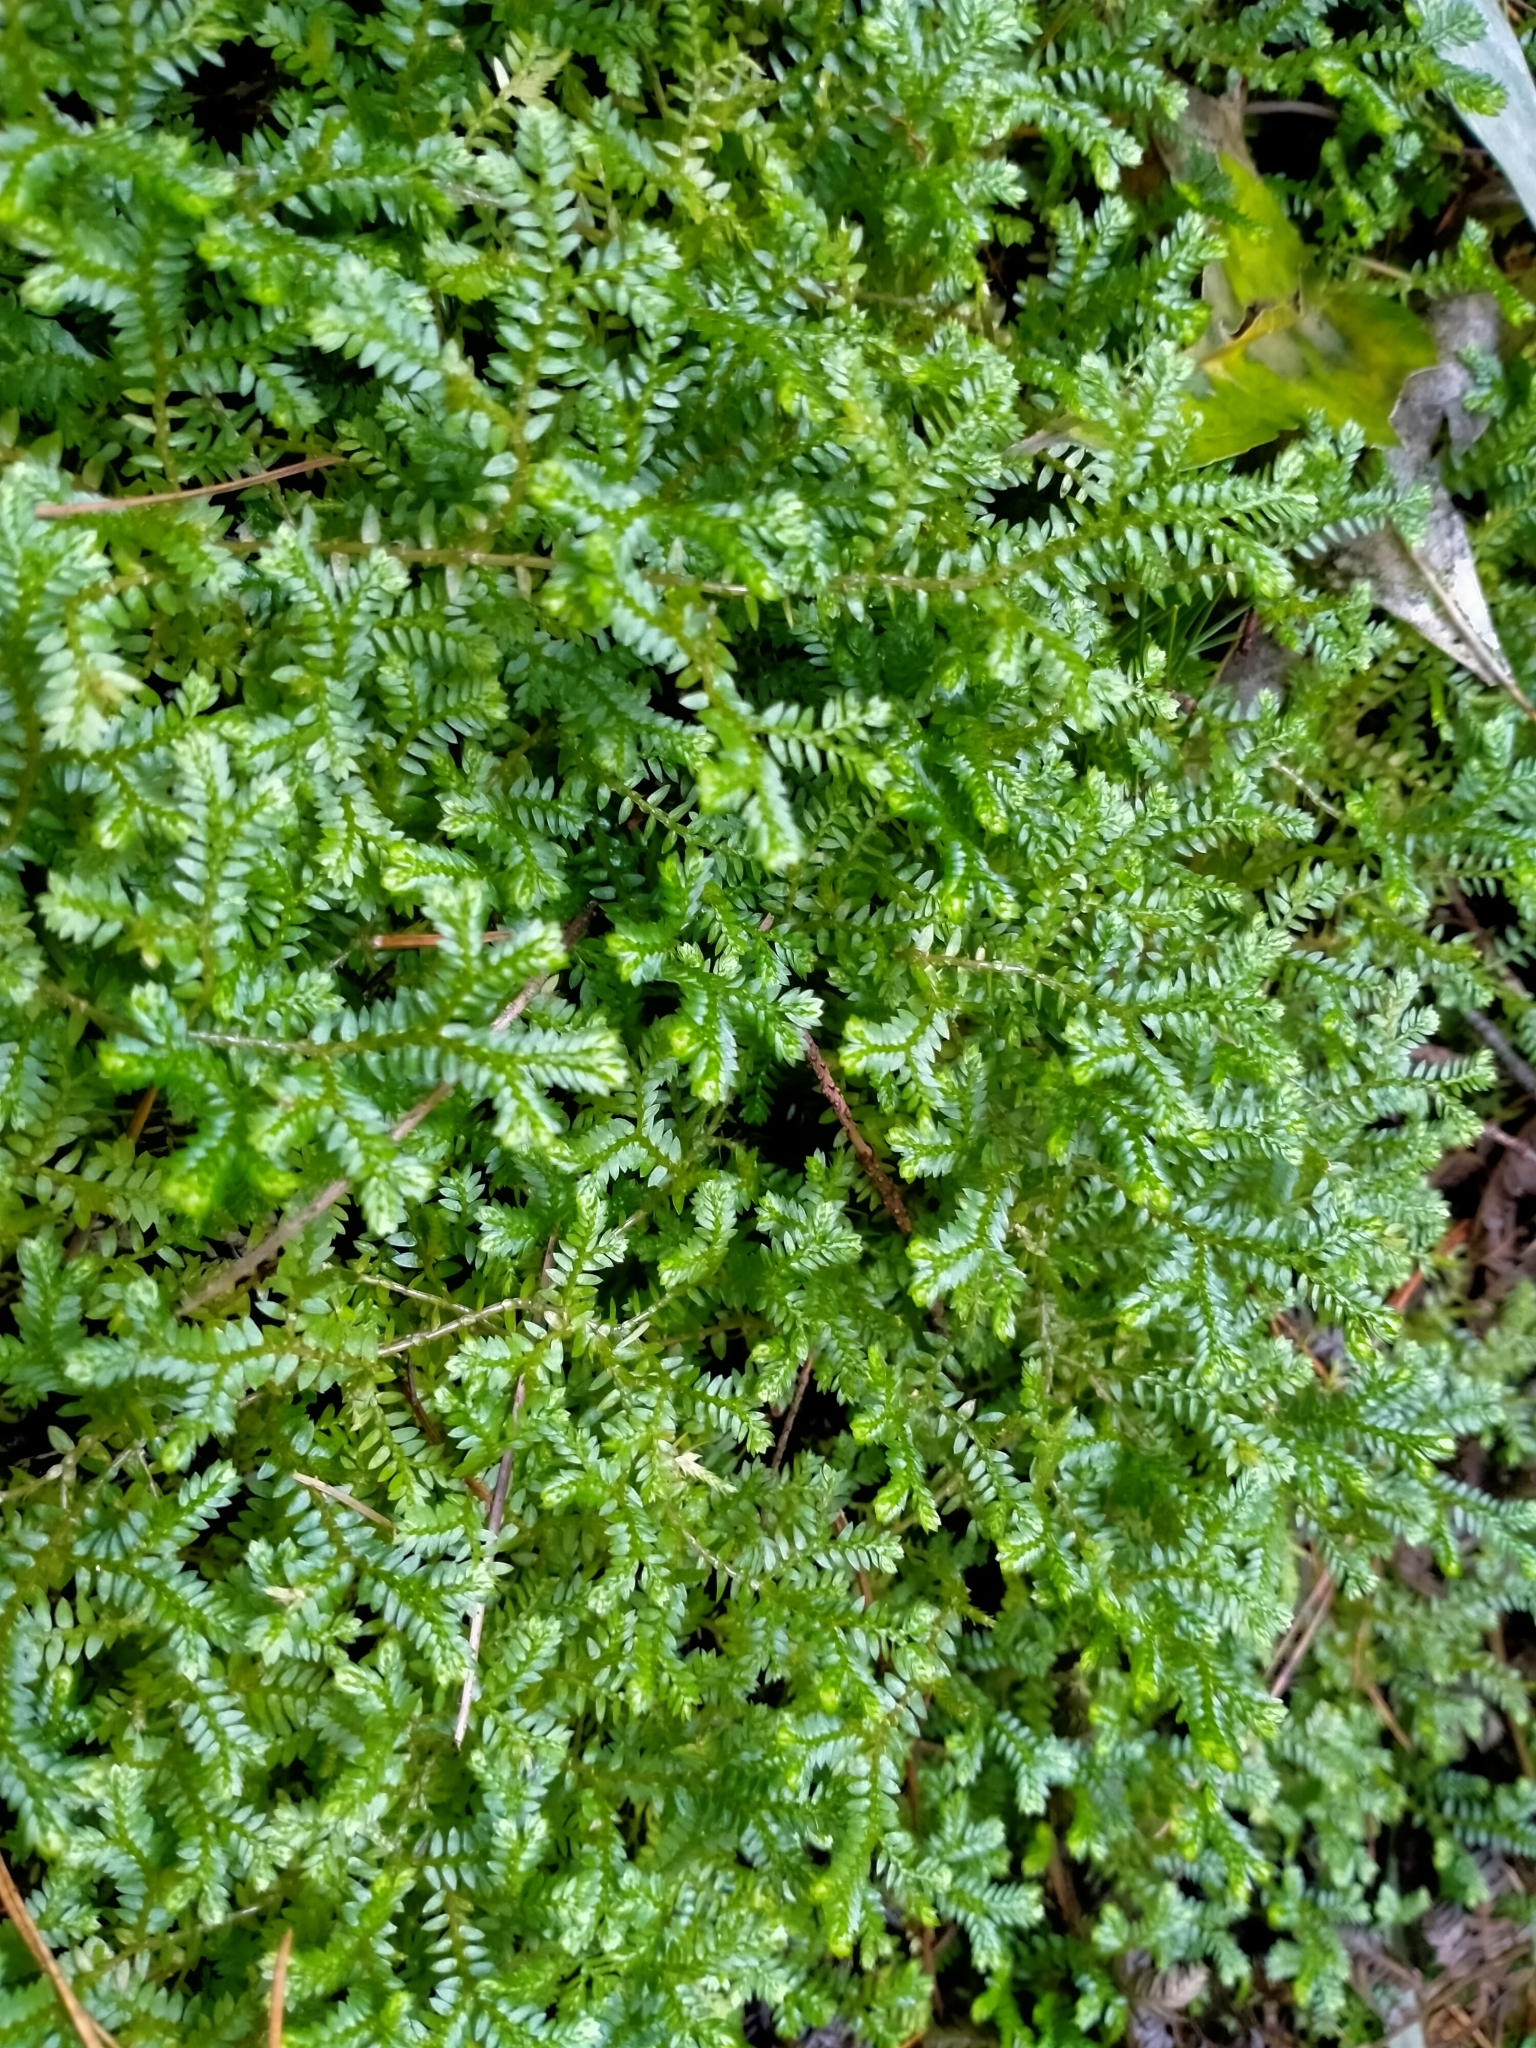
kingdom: Plantae
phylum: Tracheophyta
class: Lycopodiopsida
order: Selaginellales
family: Selaginellaceae
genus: Selaginella
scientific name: Selaginella kraussiana
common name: Krauss' spikemoss
